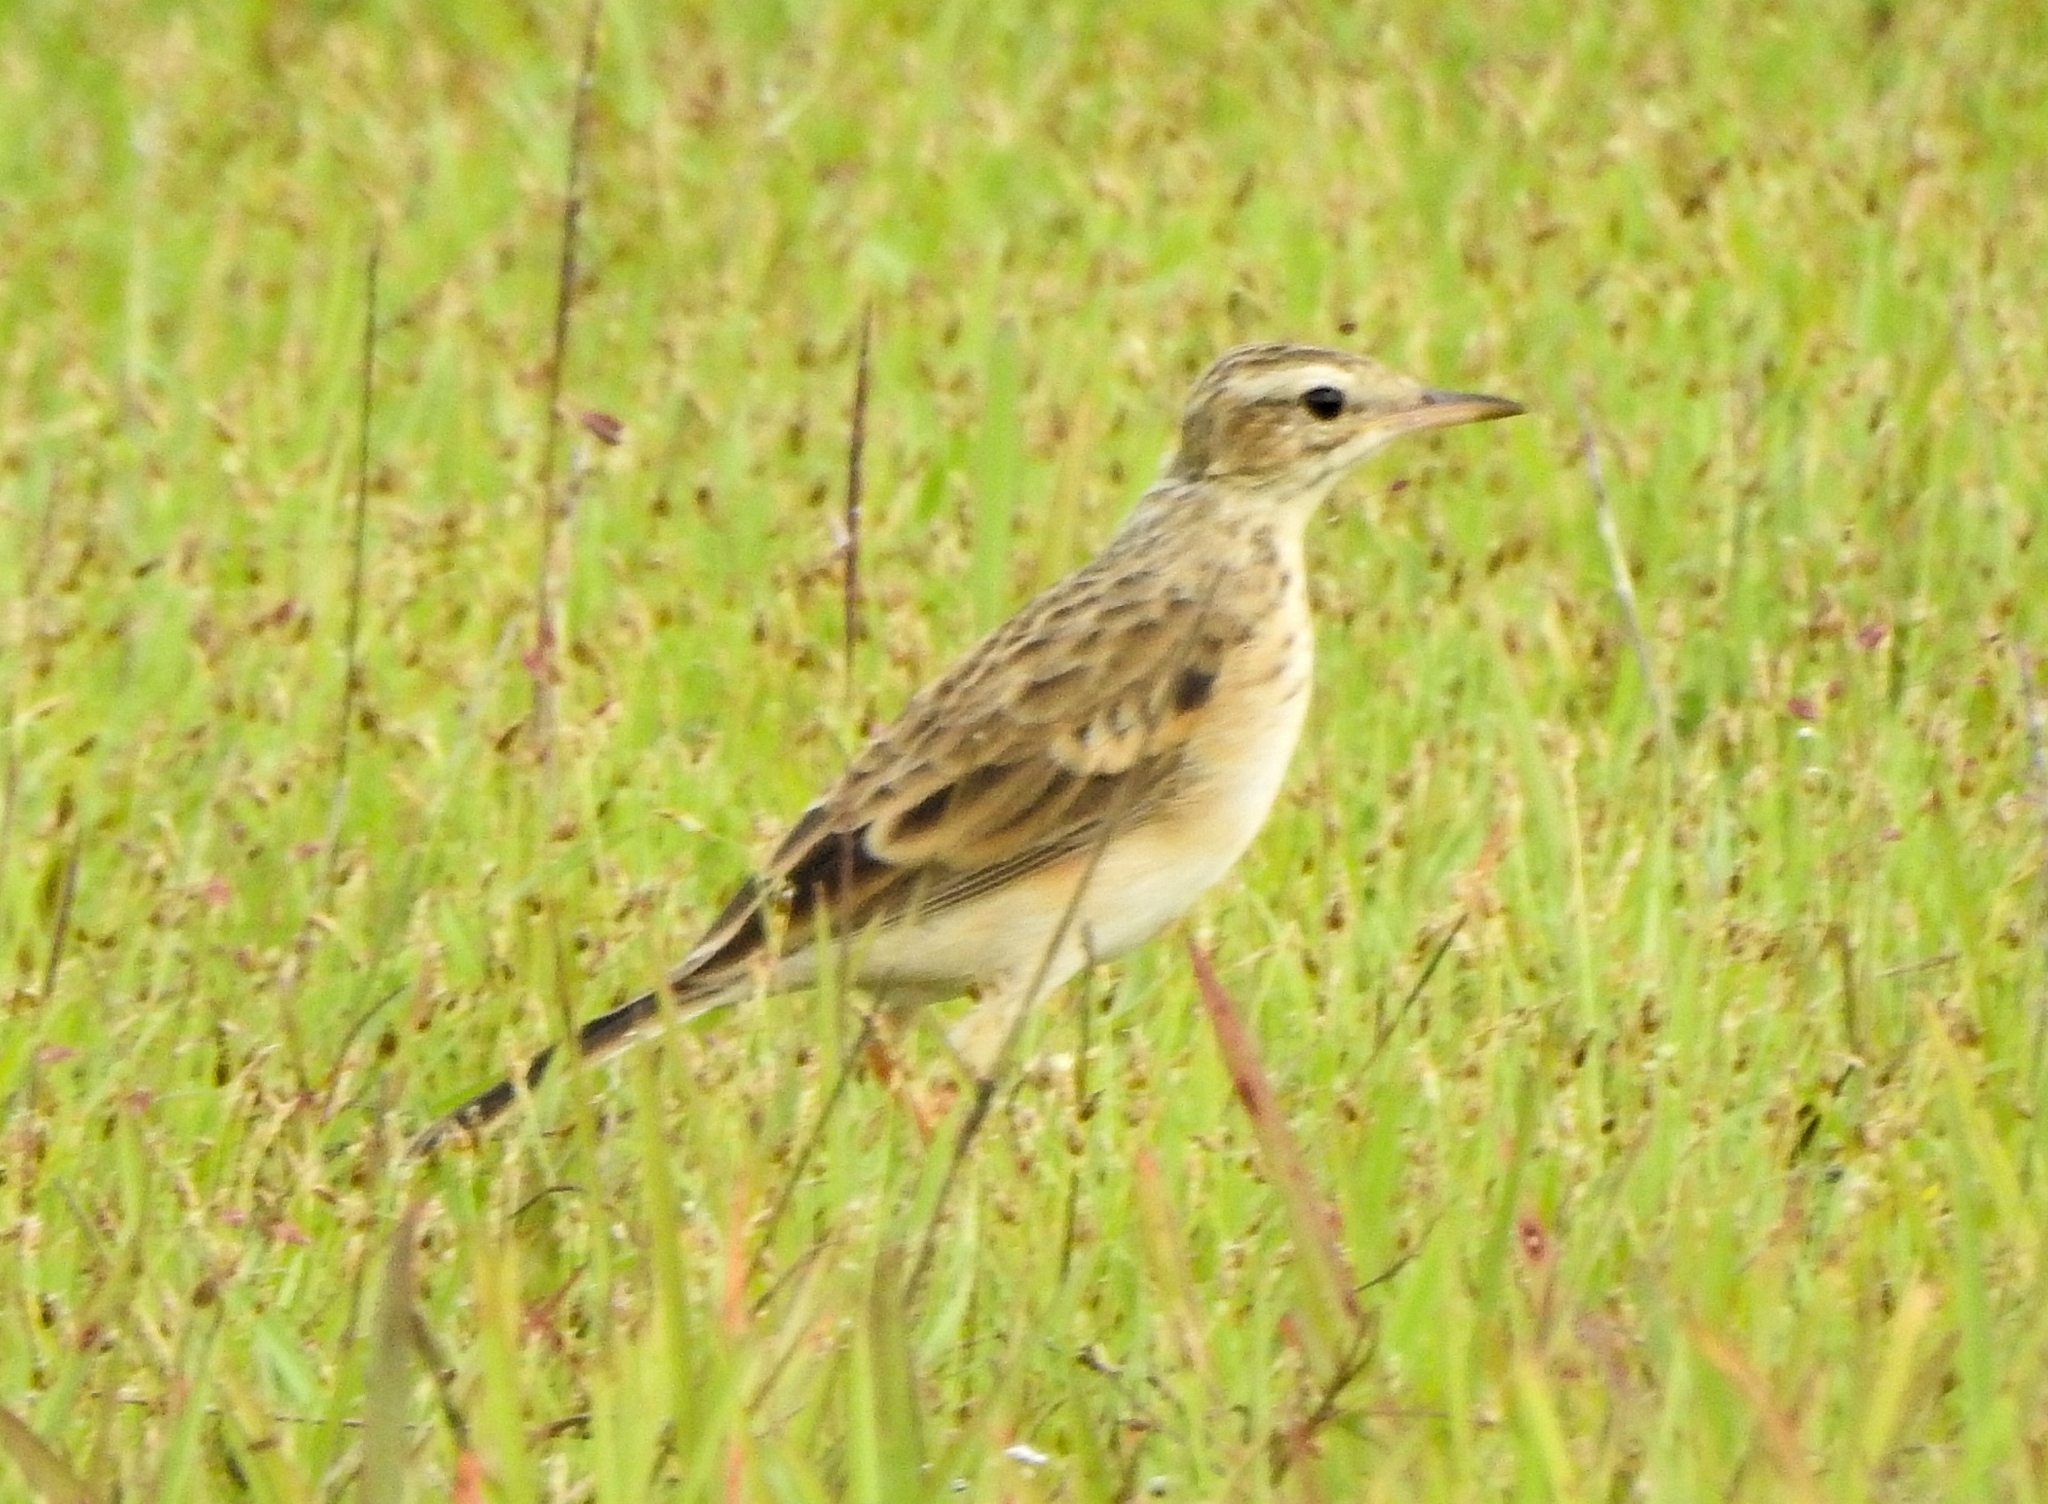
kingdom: Animalia
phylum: Chordata
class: Aves
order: Passeriformes
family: Motacillidae
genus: Anthus
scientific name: Anthus rufulus
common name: Paddyfield pipit
